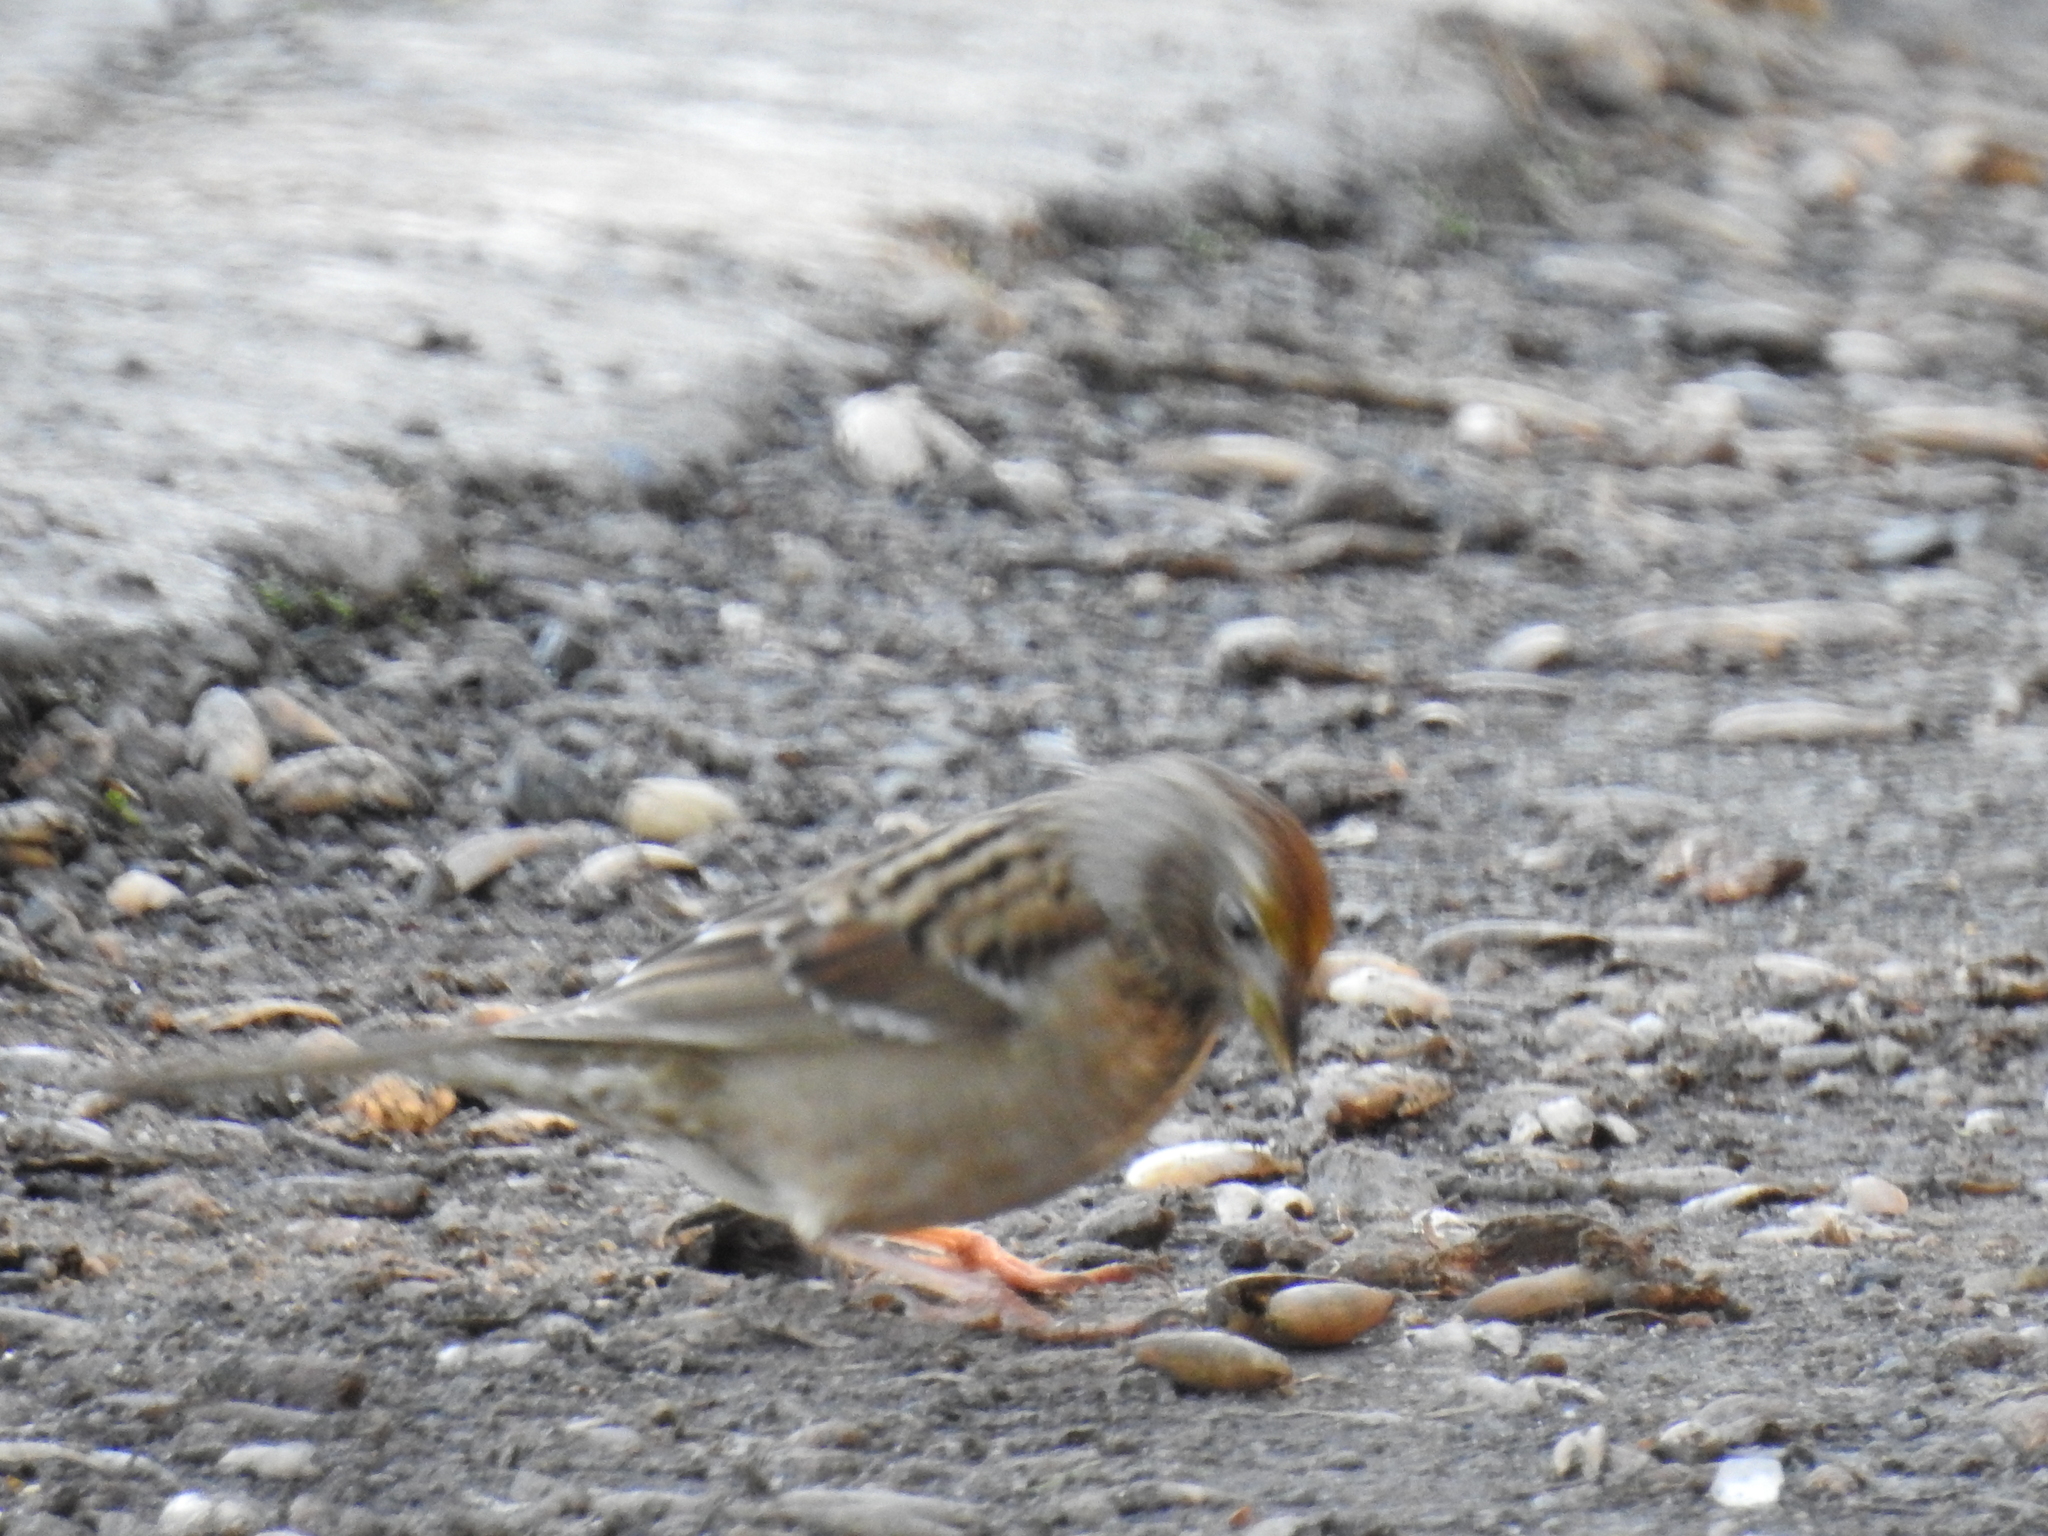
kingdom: Animalia
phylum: Chordata
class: Aves
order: Passeriformes
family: Passerellidae
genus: Zonotrichia
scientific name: Zonotrichia atricapilla
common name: Golden-crowned sparrow
